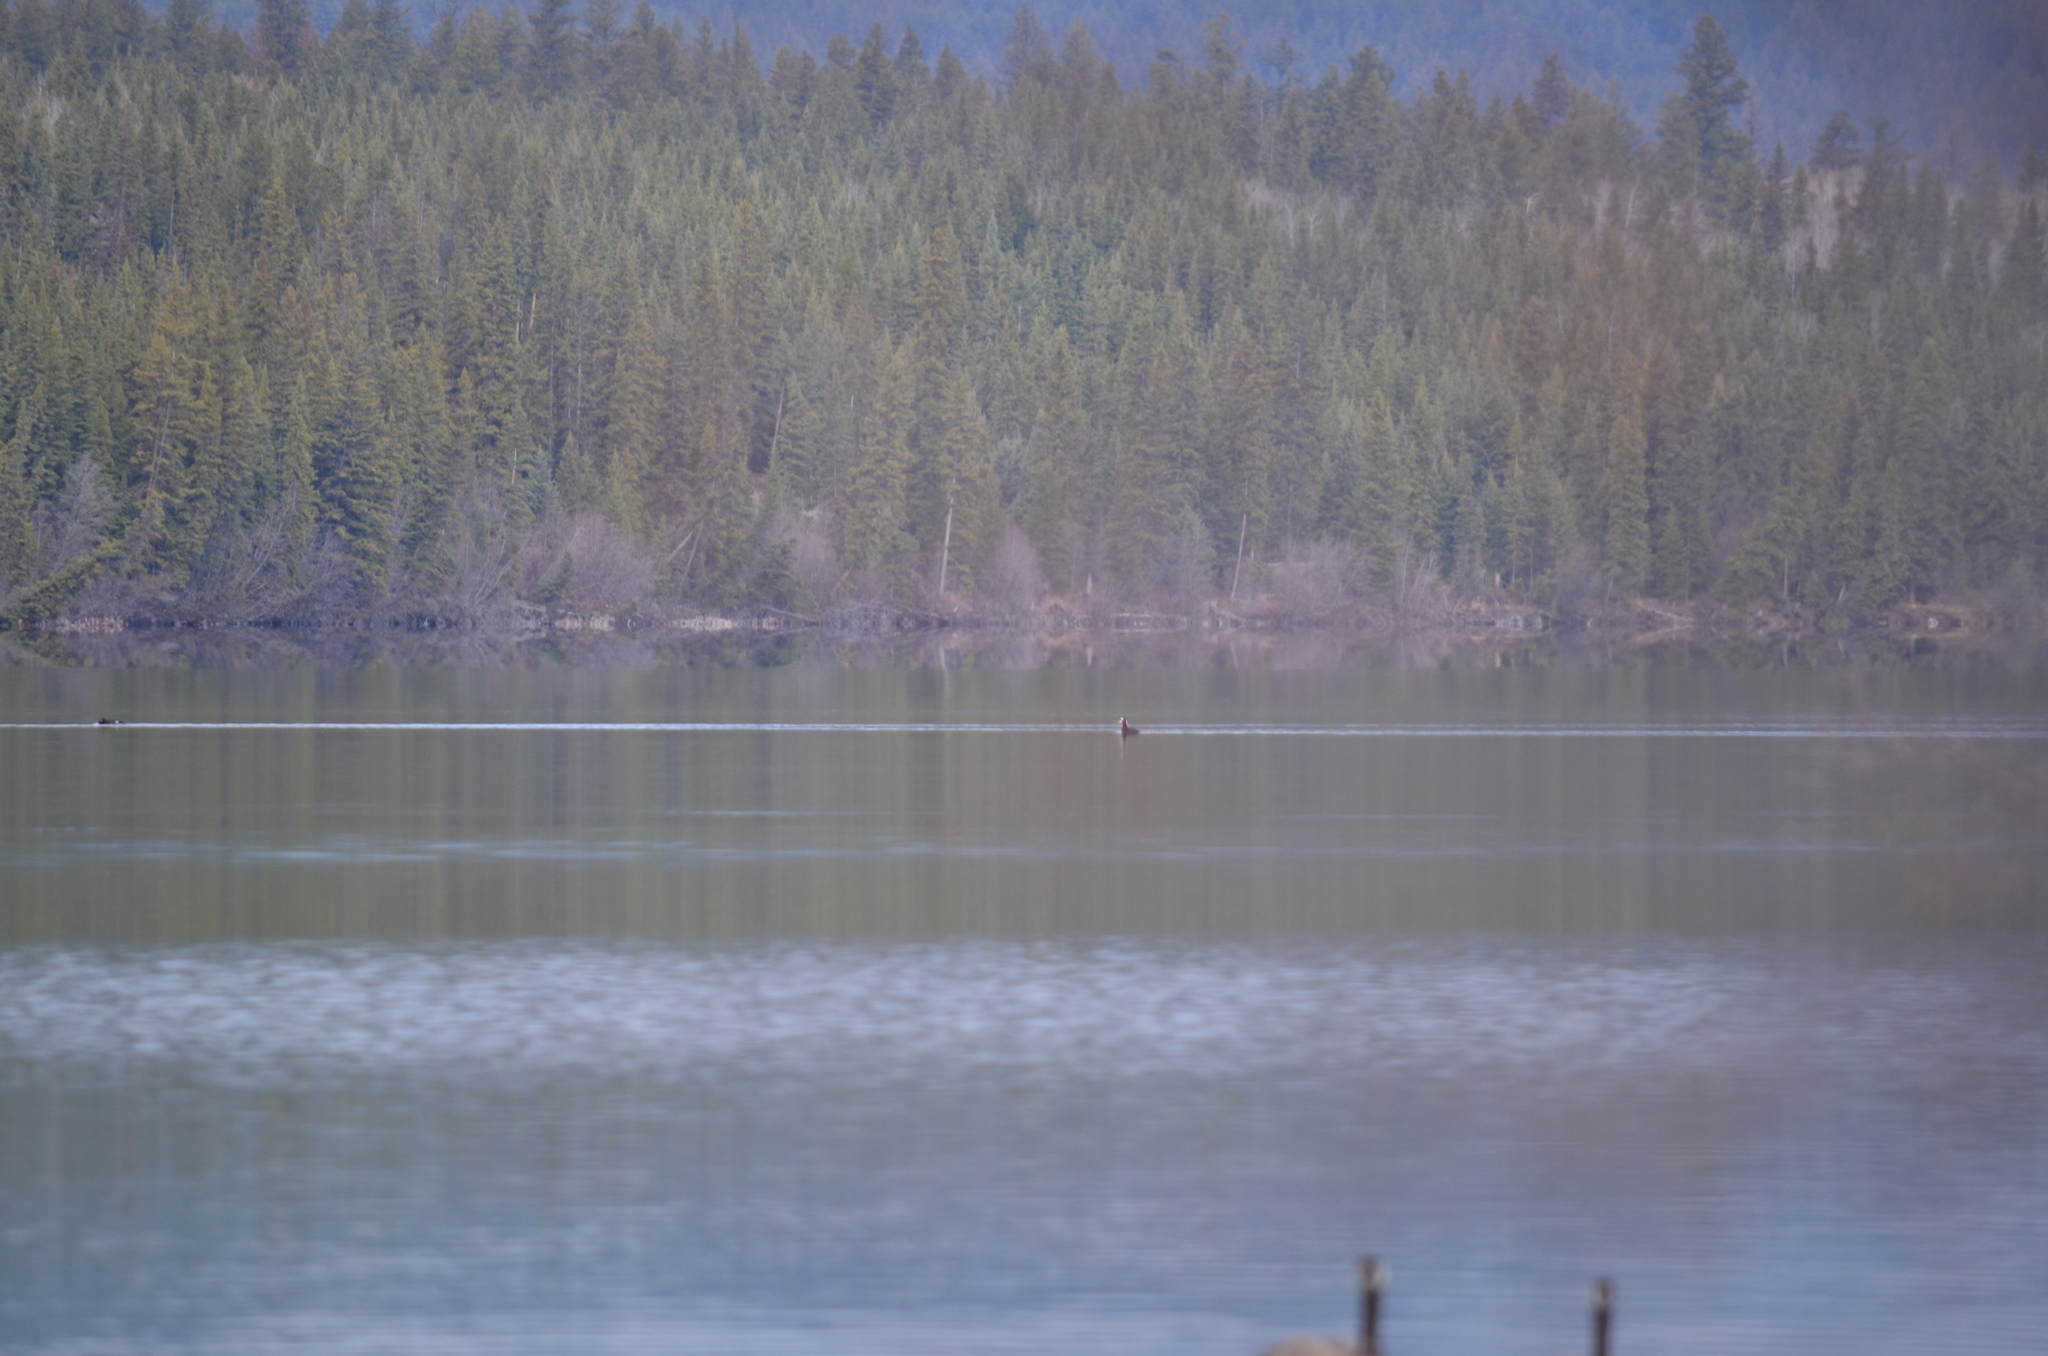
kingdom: Animalia
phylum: Chordata
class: Aves
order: Anseriformes
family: Anatidae
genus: Melanitta
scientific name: Melanitta perspicillata
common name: Surf scoter
